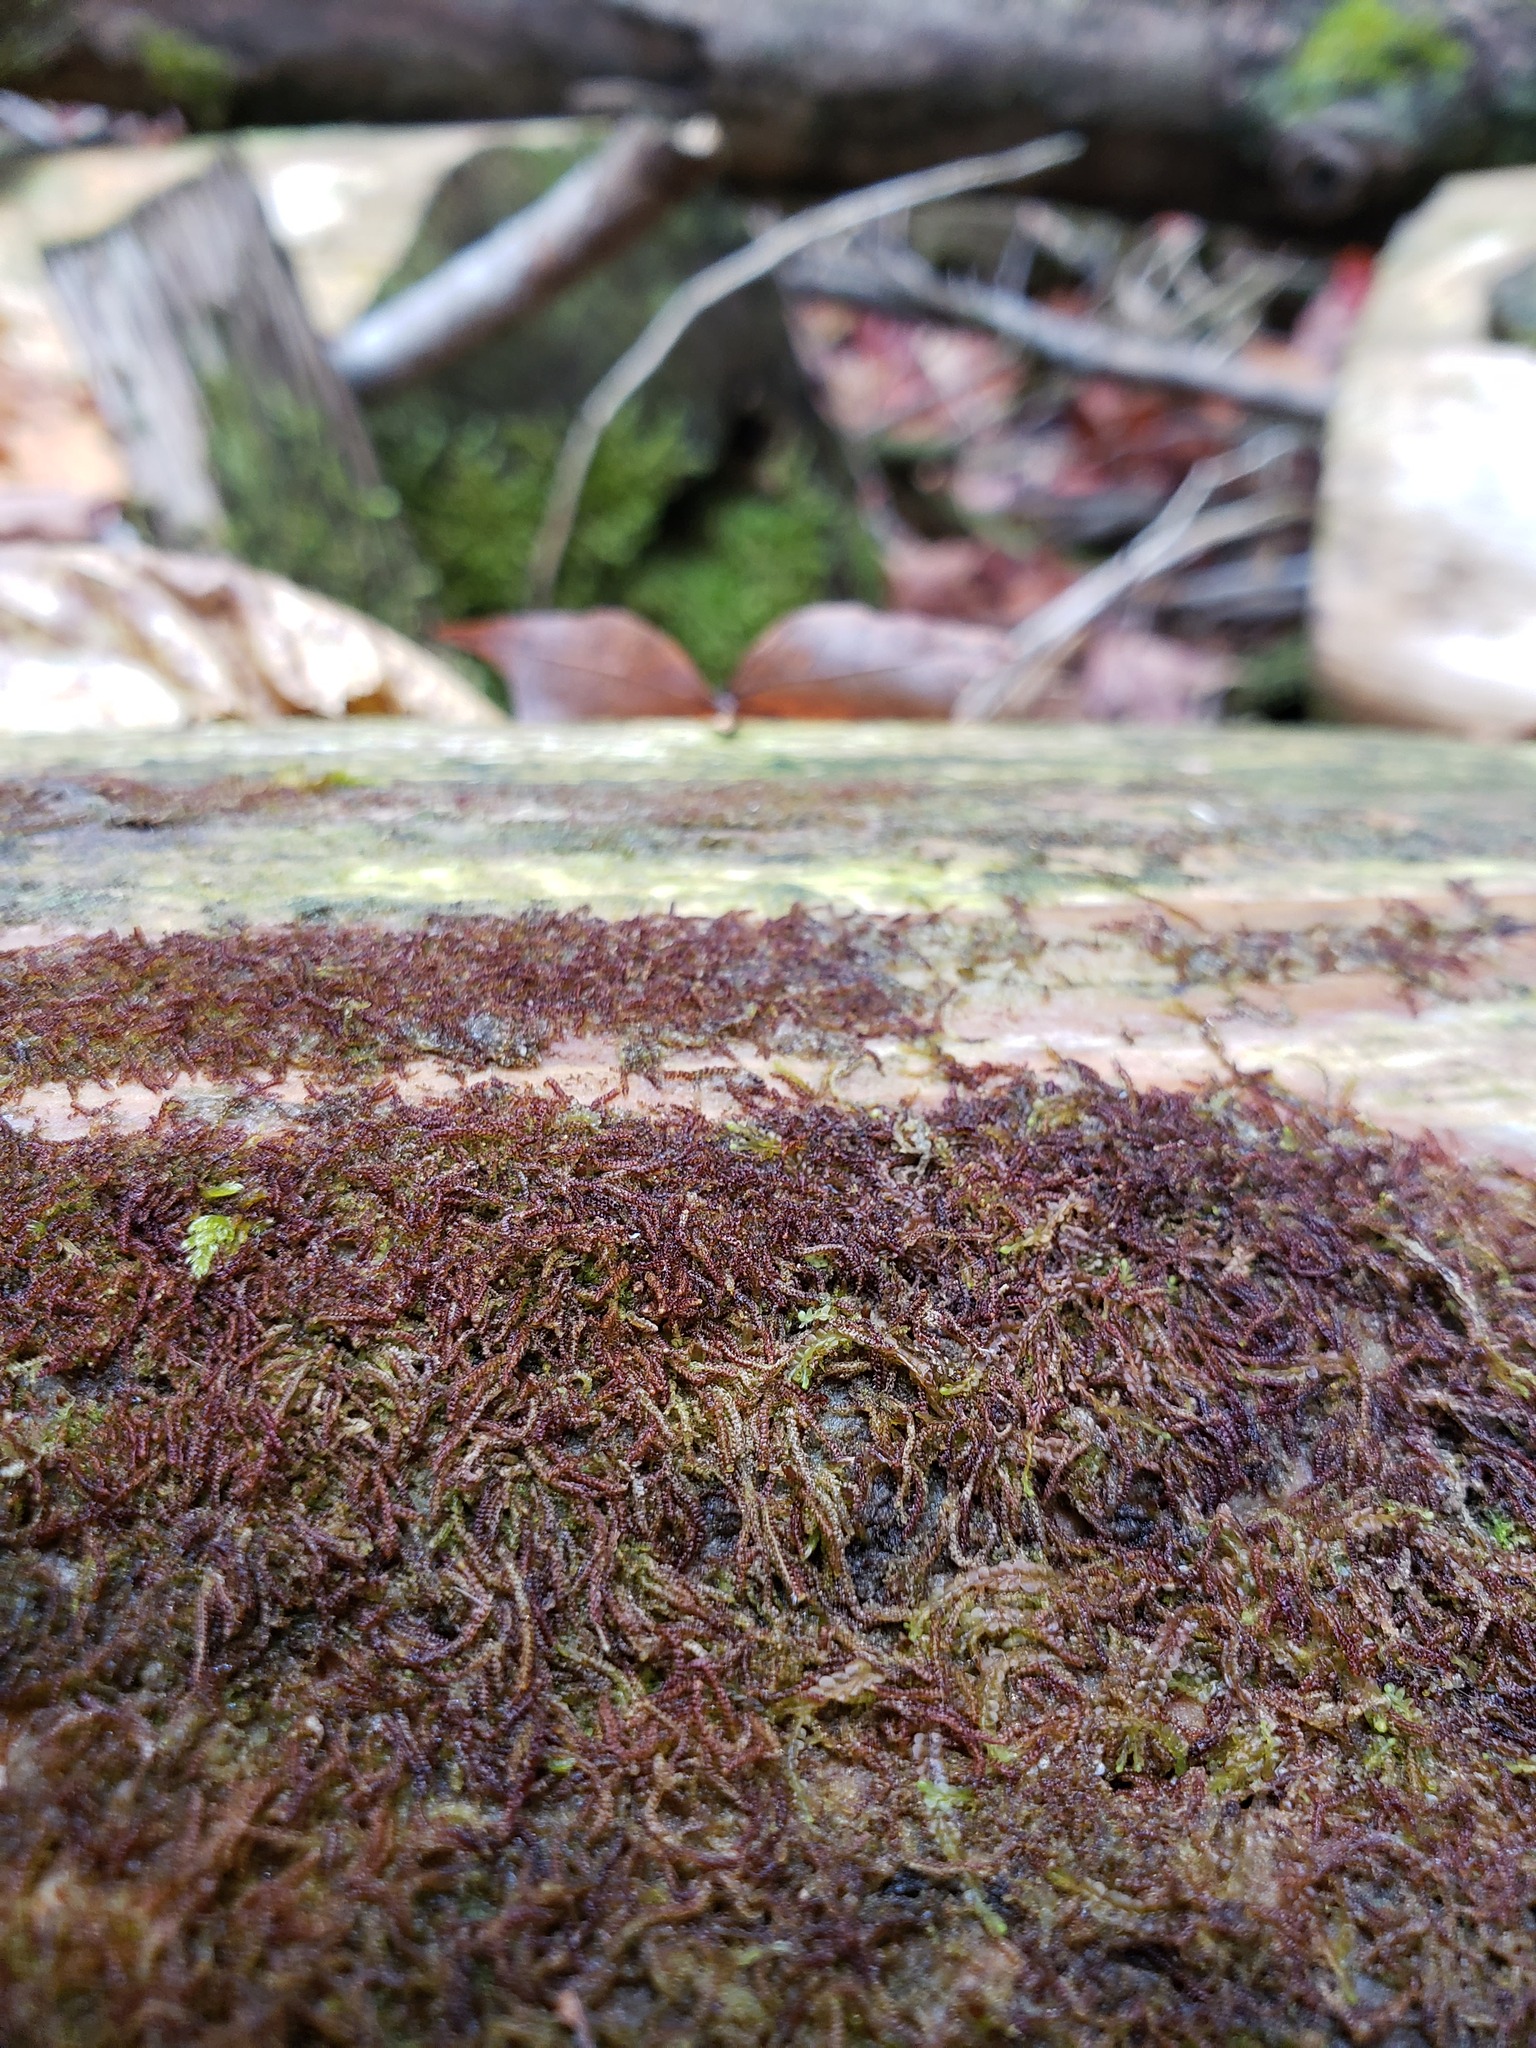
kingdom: Plantae
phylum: Marchantiophyta
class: Jungermanniopsida
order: Jungermanniales
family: Cephaloziaceae
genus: Nowellia
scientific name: Nowellia curvifolia
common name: Wood rustwort
